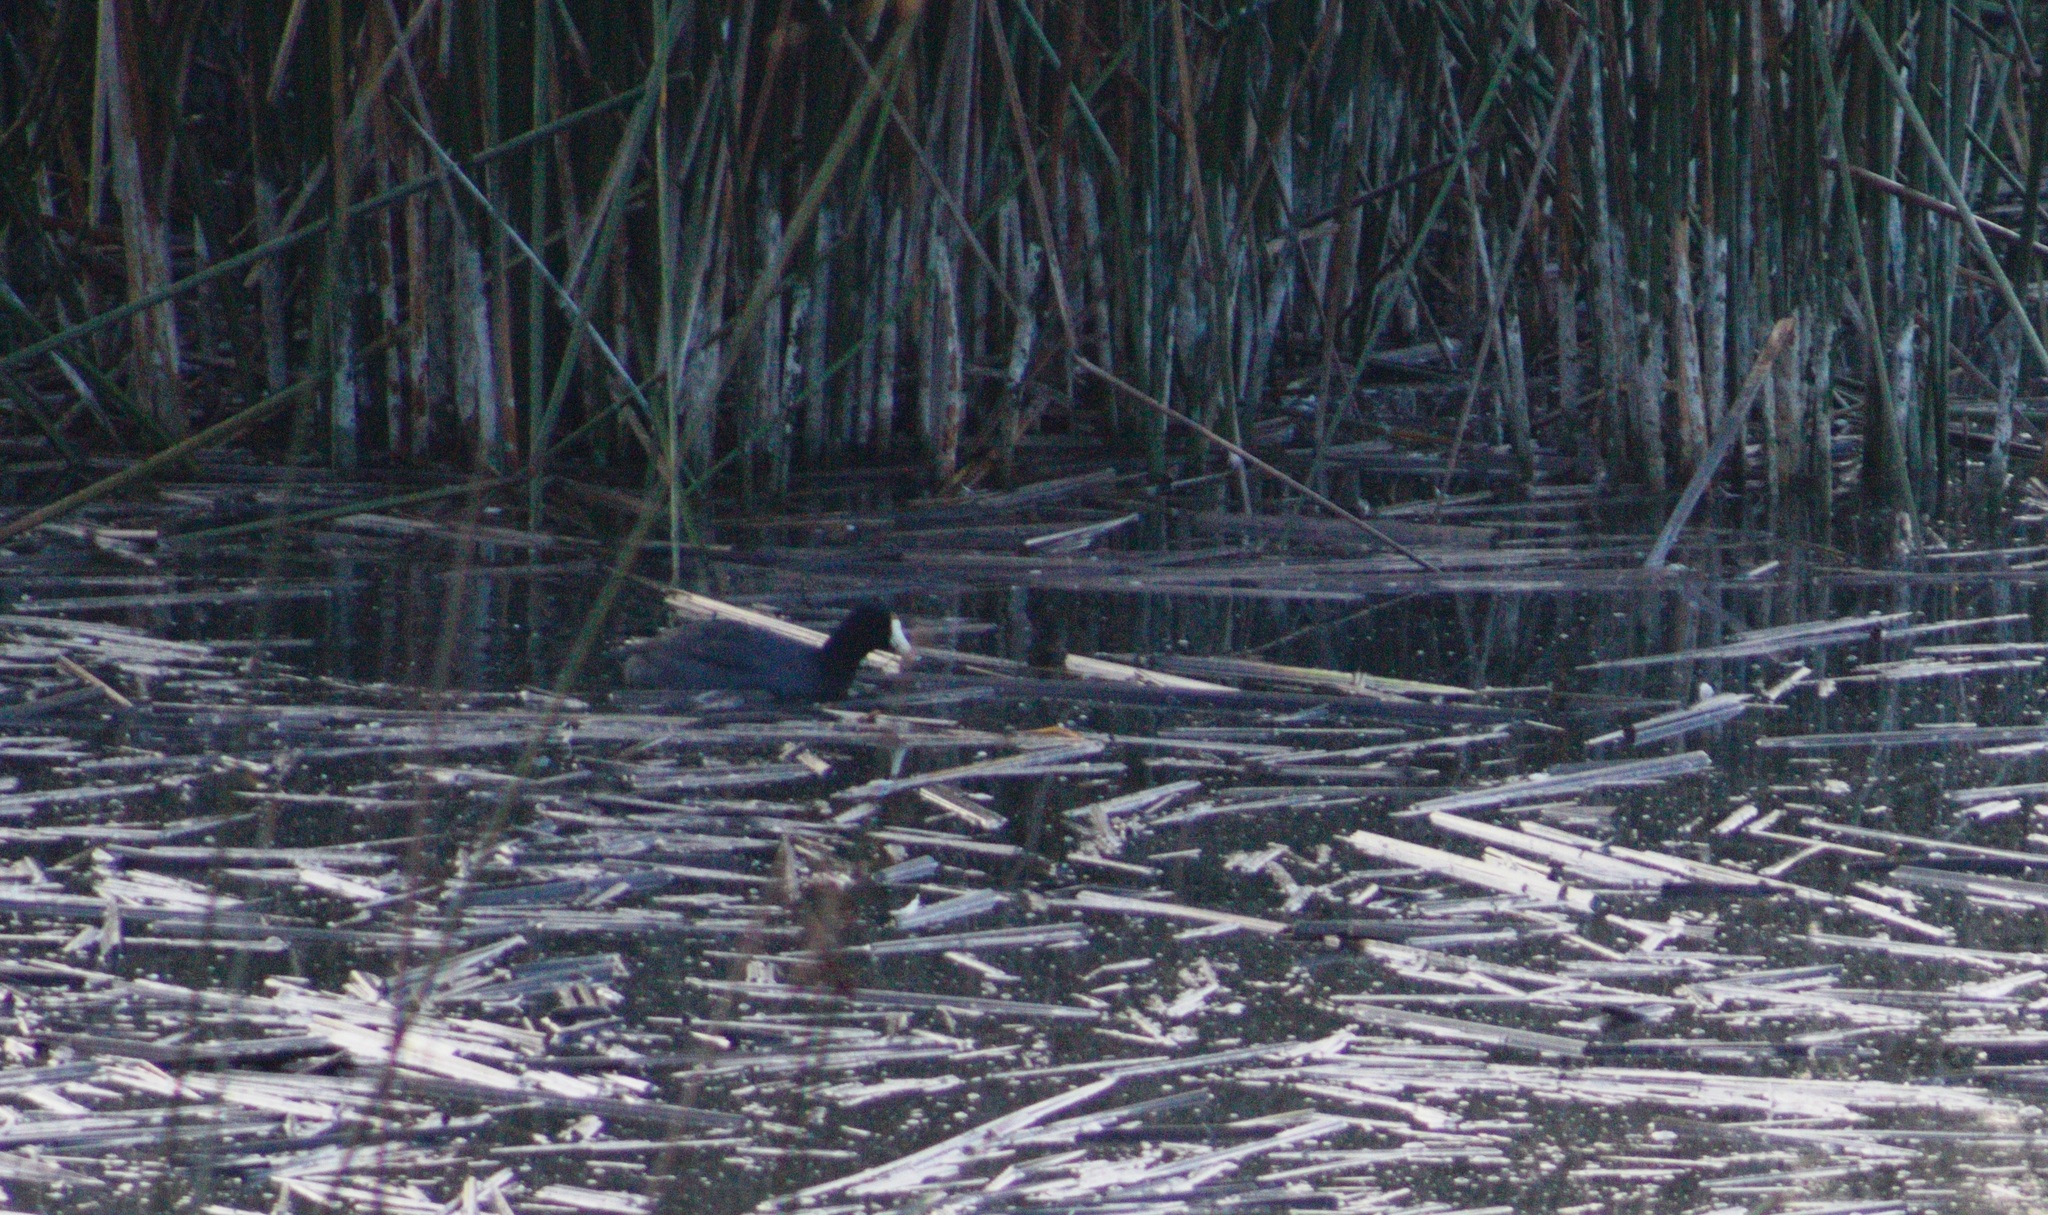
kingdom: Animalia
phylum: Chordata
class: Aves
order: Gruiformes
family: Rallidae
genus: Fulica
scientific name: Fulica americana
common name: American coot
